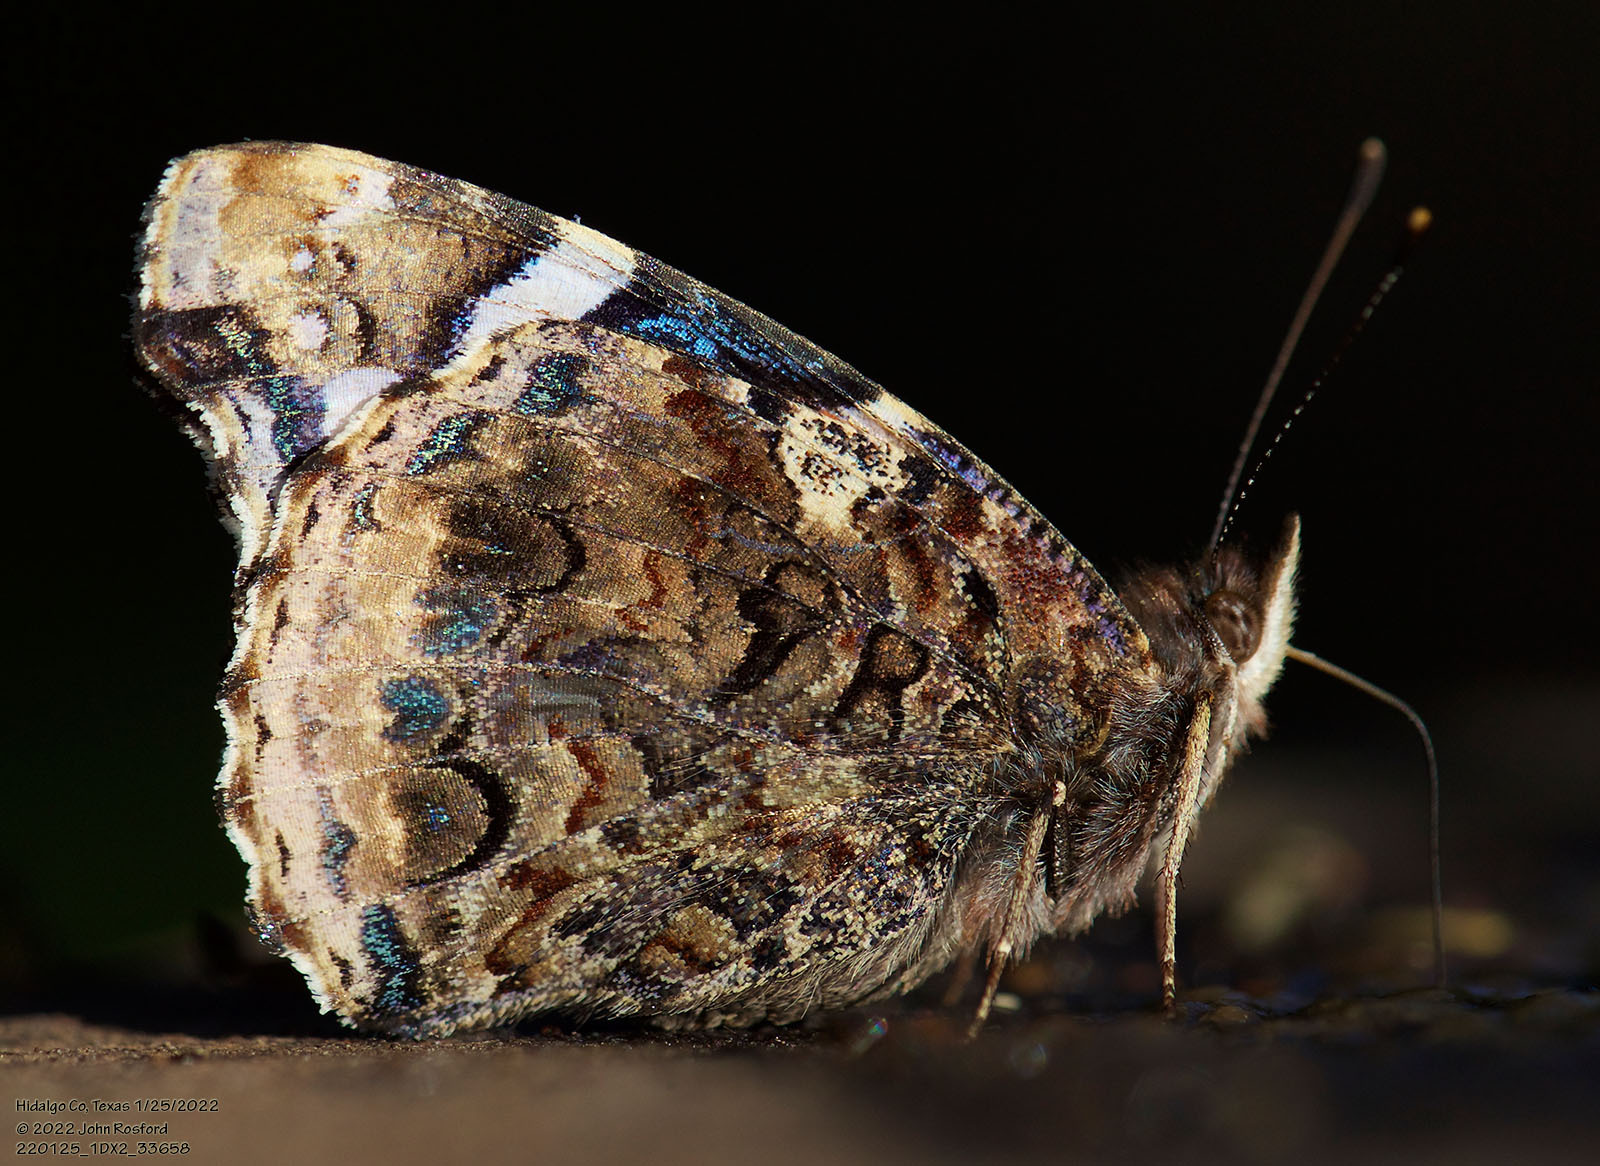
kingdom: Animalia
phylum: Arthropoda
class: Insecta
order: Lepidoptera
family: Nymphalidae
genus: Vanessa
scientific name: Vanessa atalanta
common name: Red admiral
